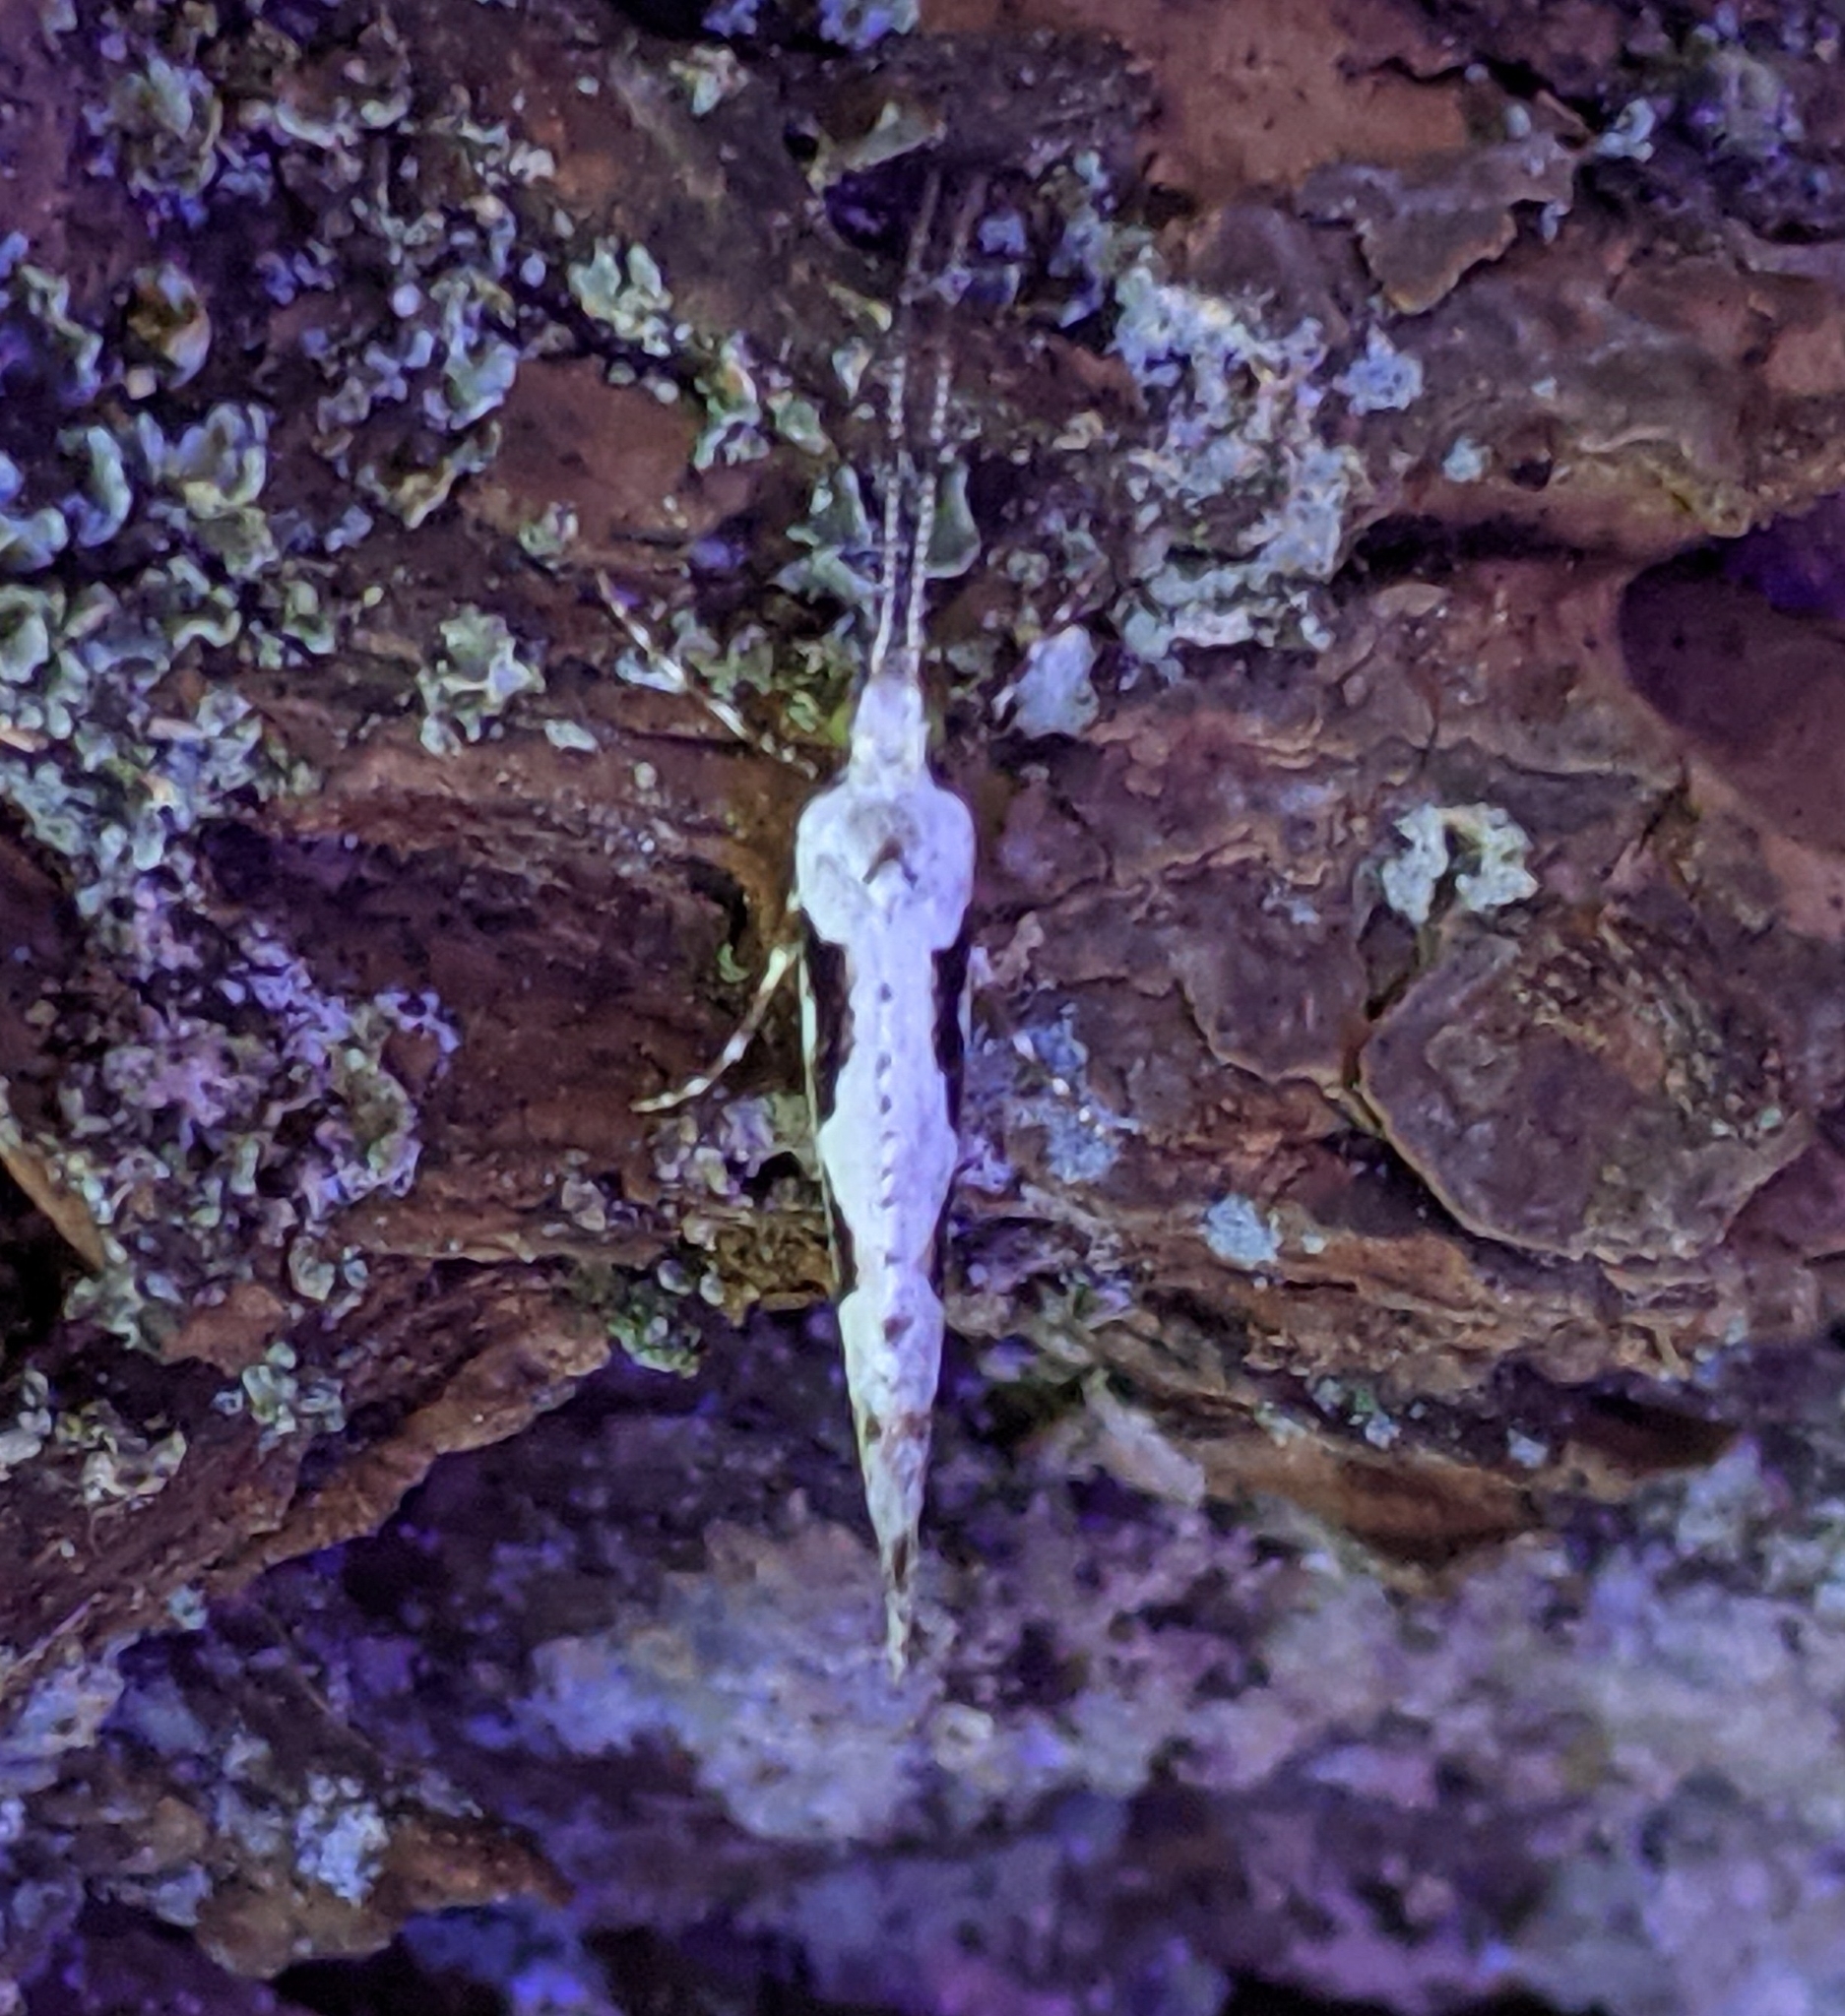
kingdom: Animalia
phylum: Arthropoda
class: Insecta
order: Lepidoptera
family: Plutellidae
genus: Rhigognostis
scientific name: Rhigognostis interrupta
